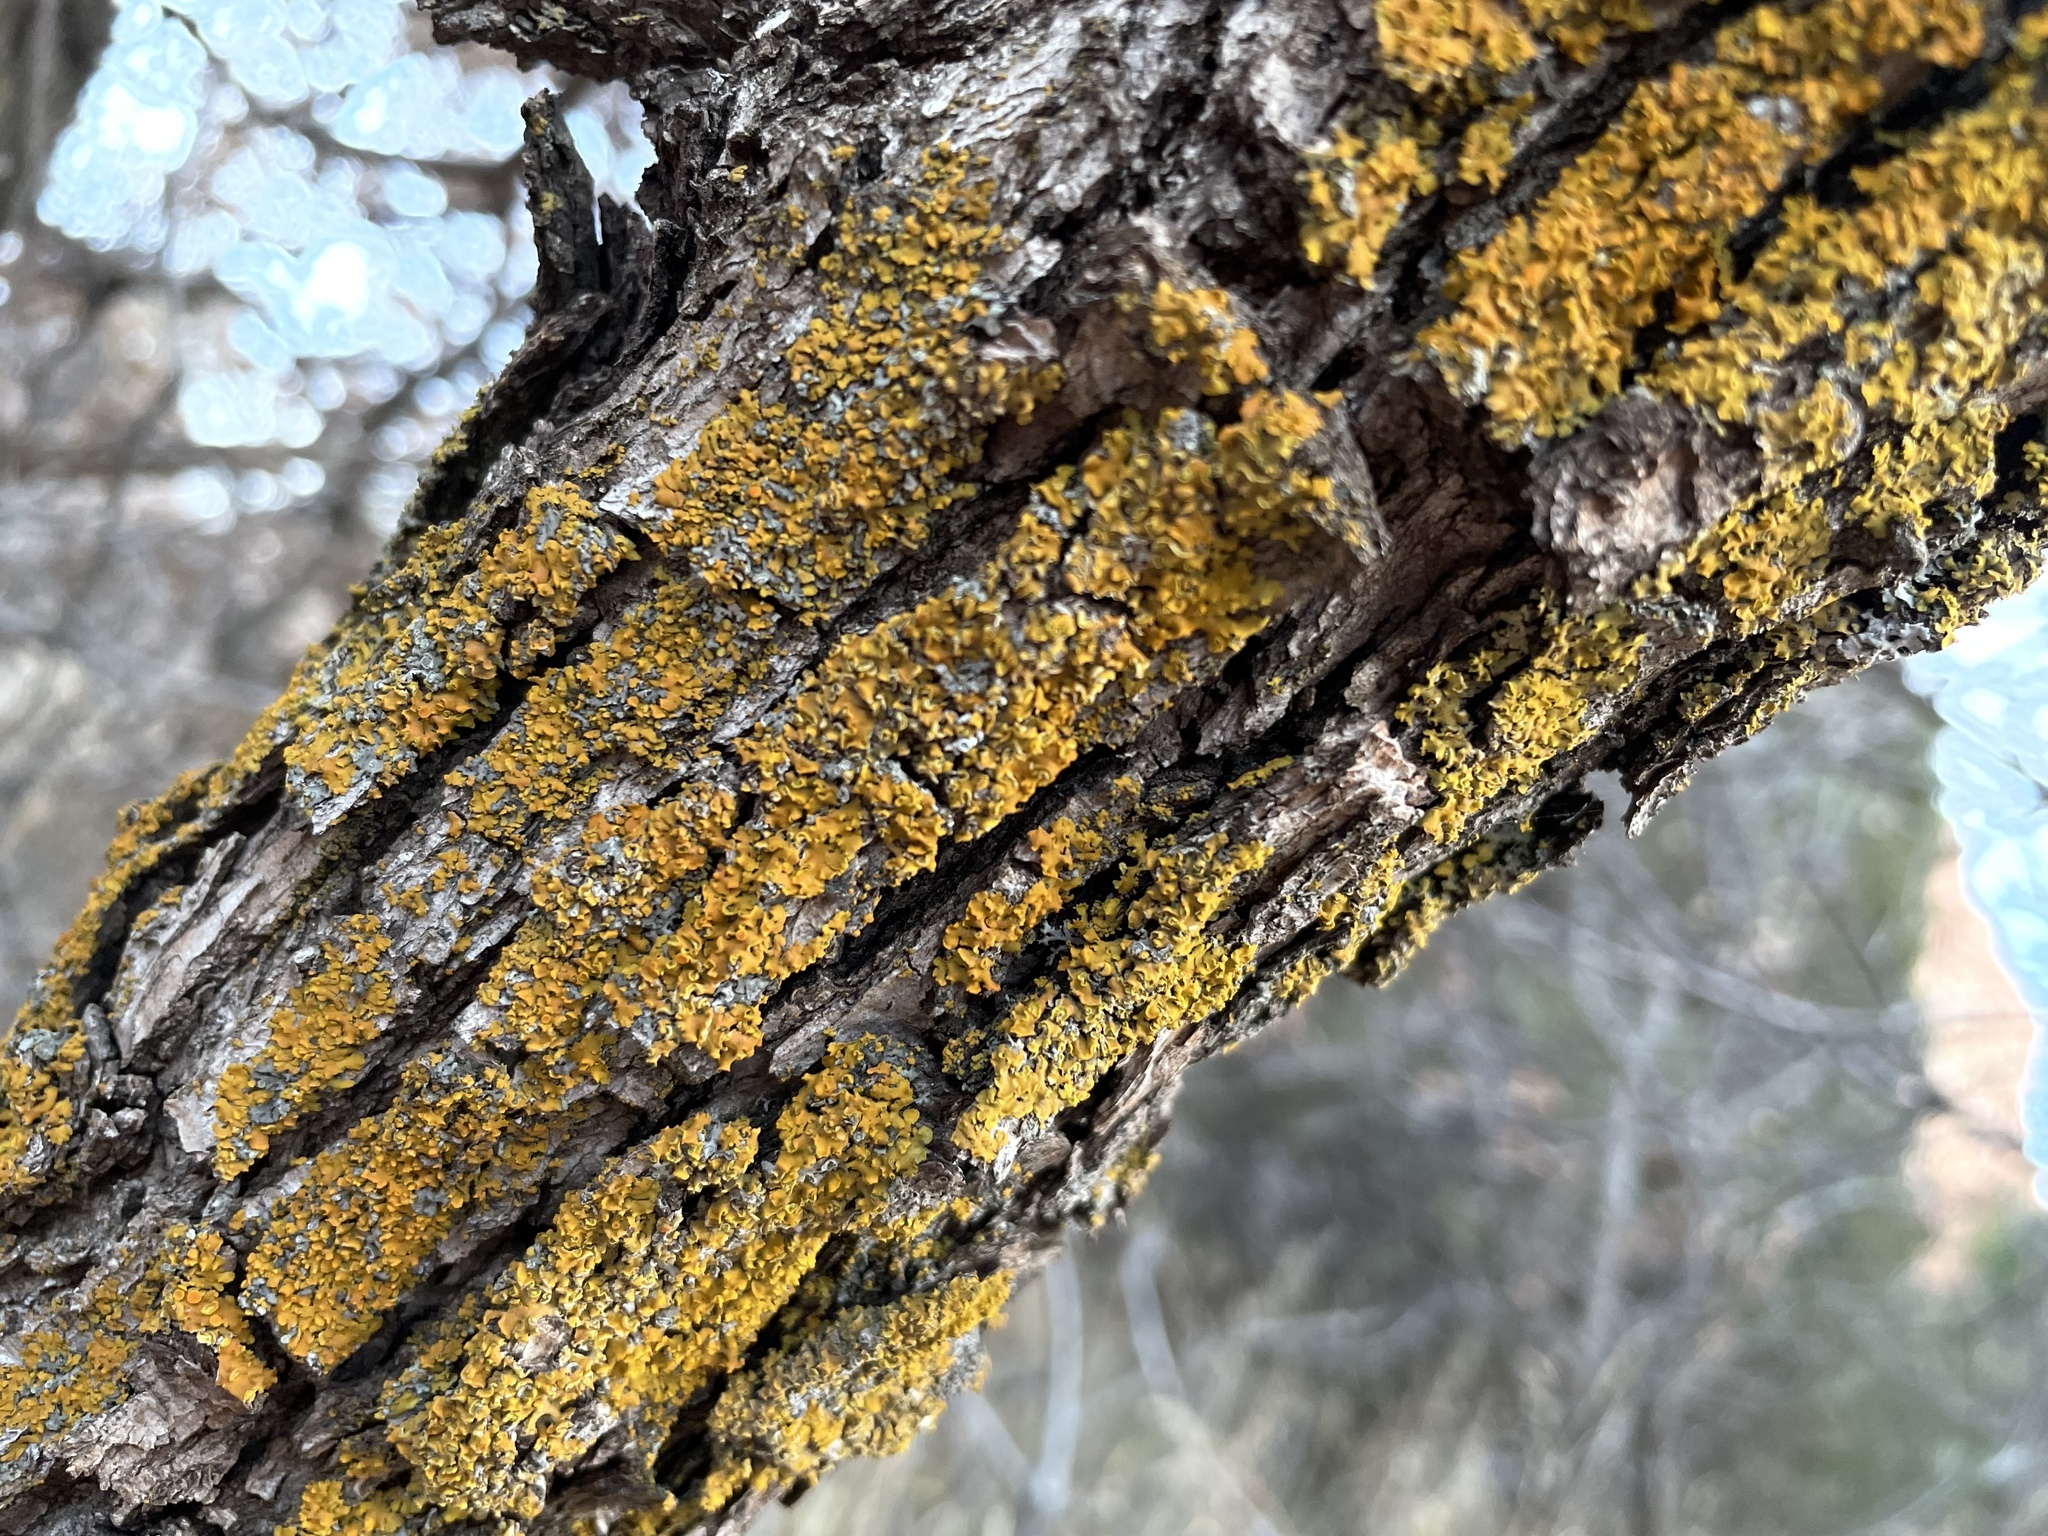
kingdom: Fungi
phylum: Ascomycota
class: Lecanoromycetes
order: Teloschistales
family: Teloschistaceae
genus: Oxneria
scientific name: Oxneria fallax
